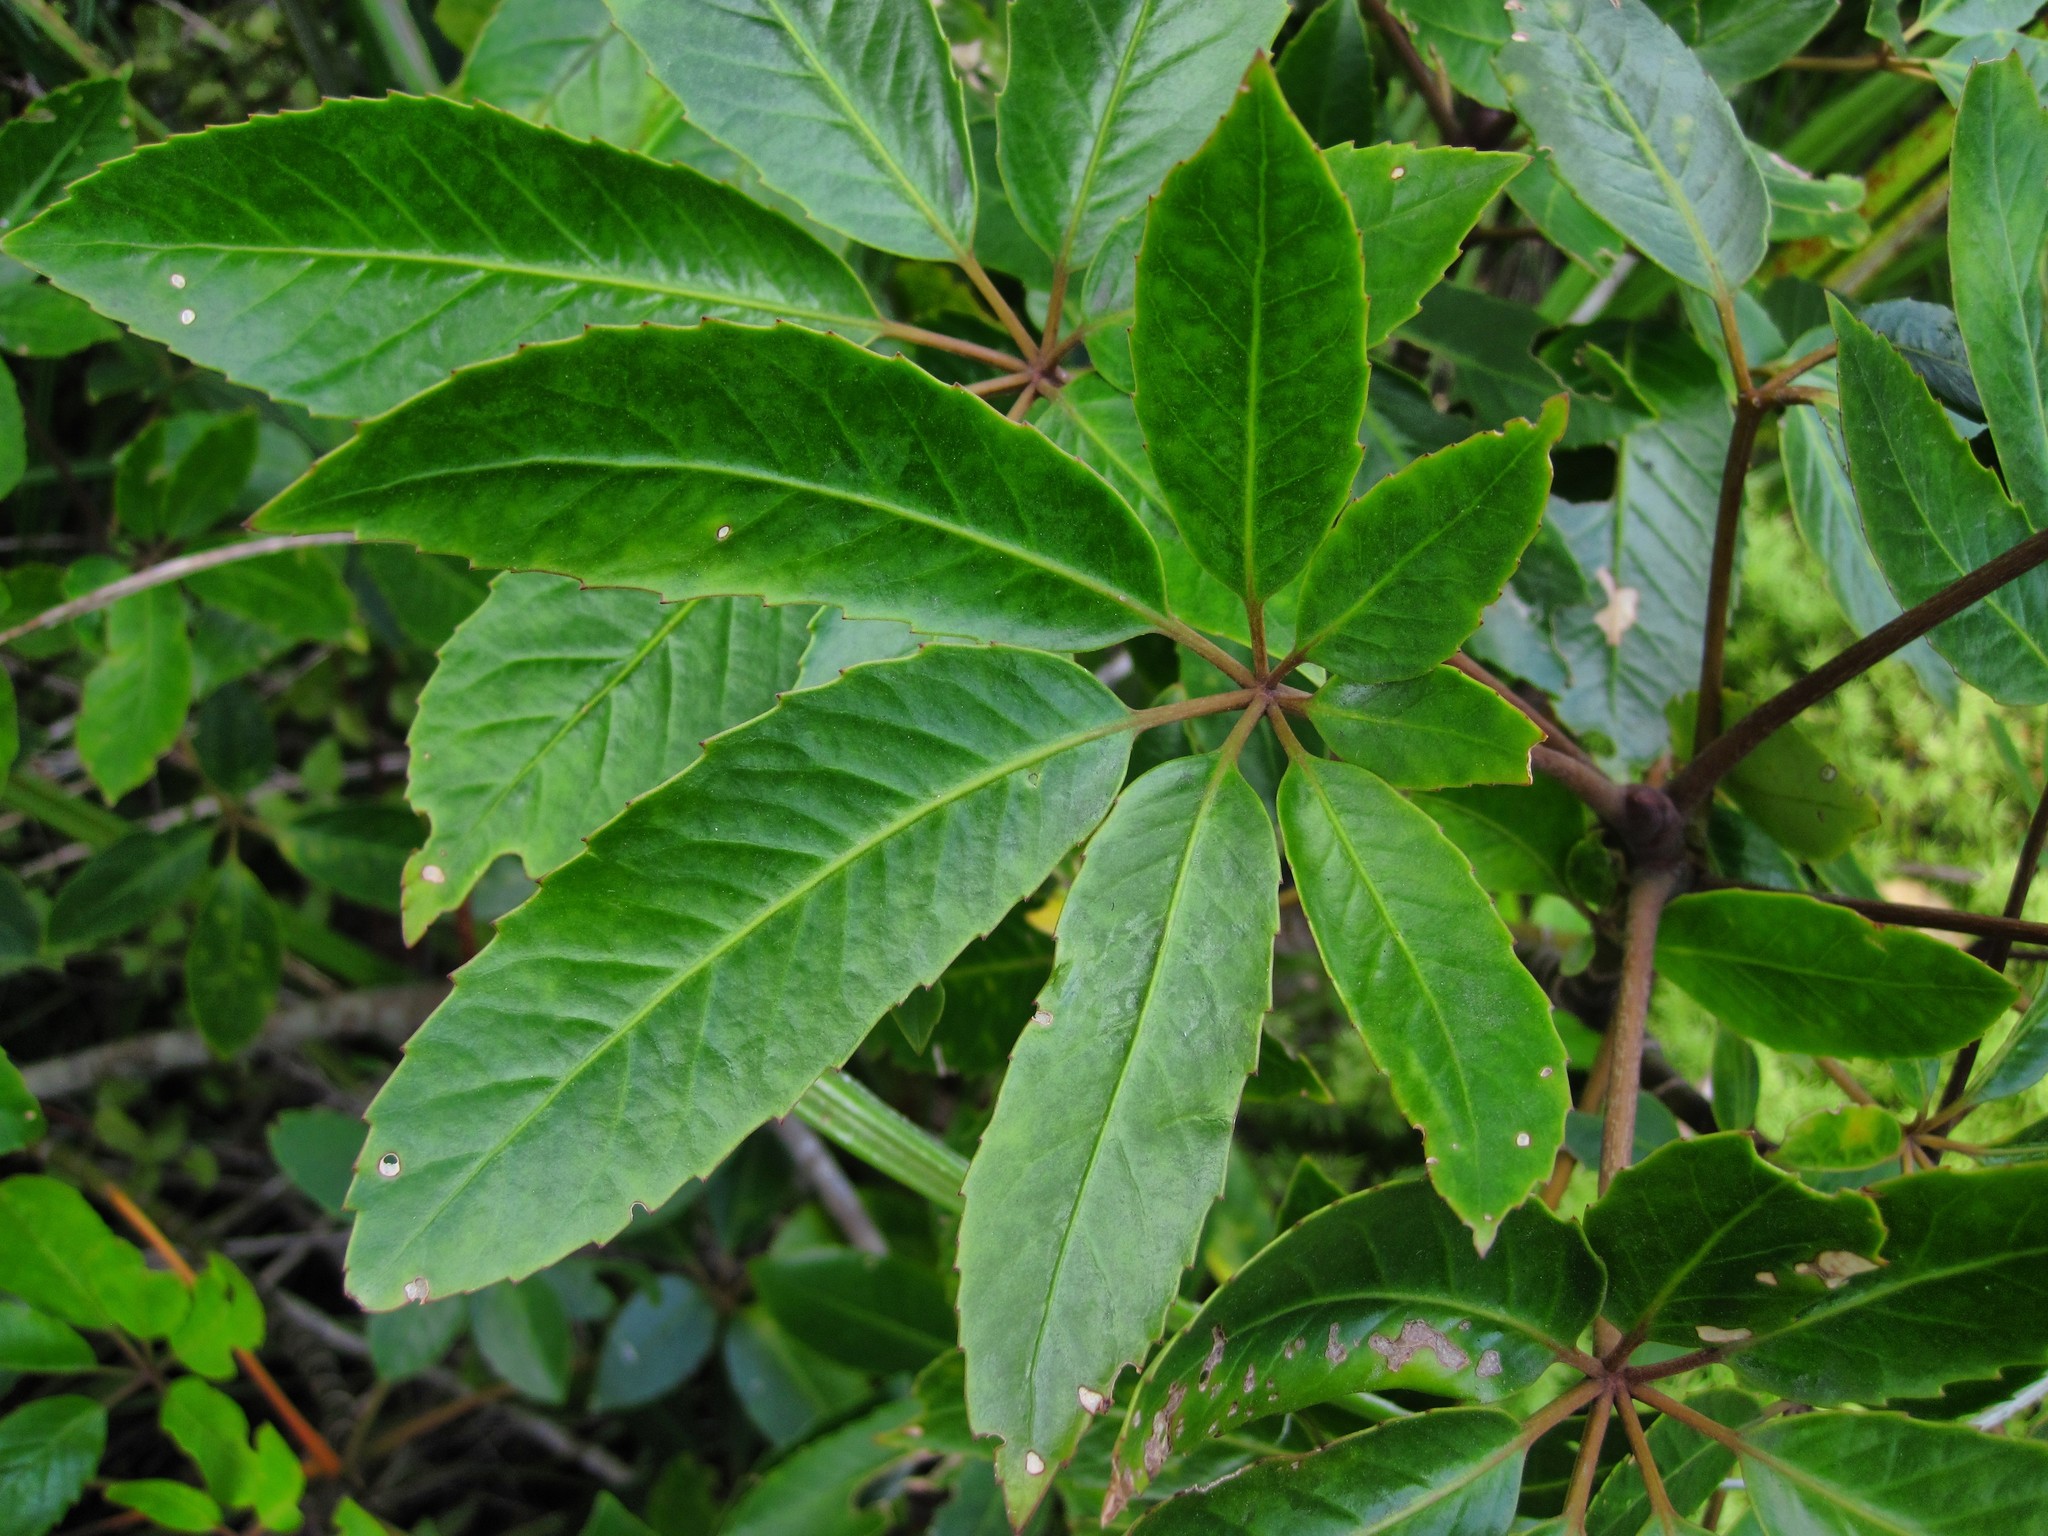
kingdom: Plantae
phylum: Tracheophyta
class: Magnoliopsida
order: Apiales
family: Araliaceae
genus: Neopanax
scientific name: Neopanax arboreus
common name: Five-fingers
